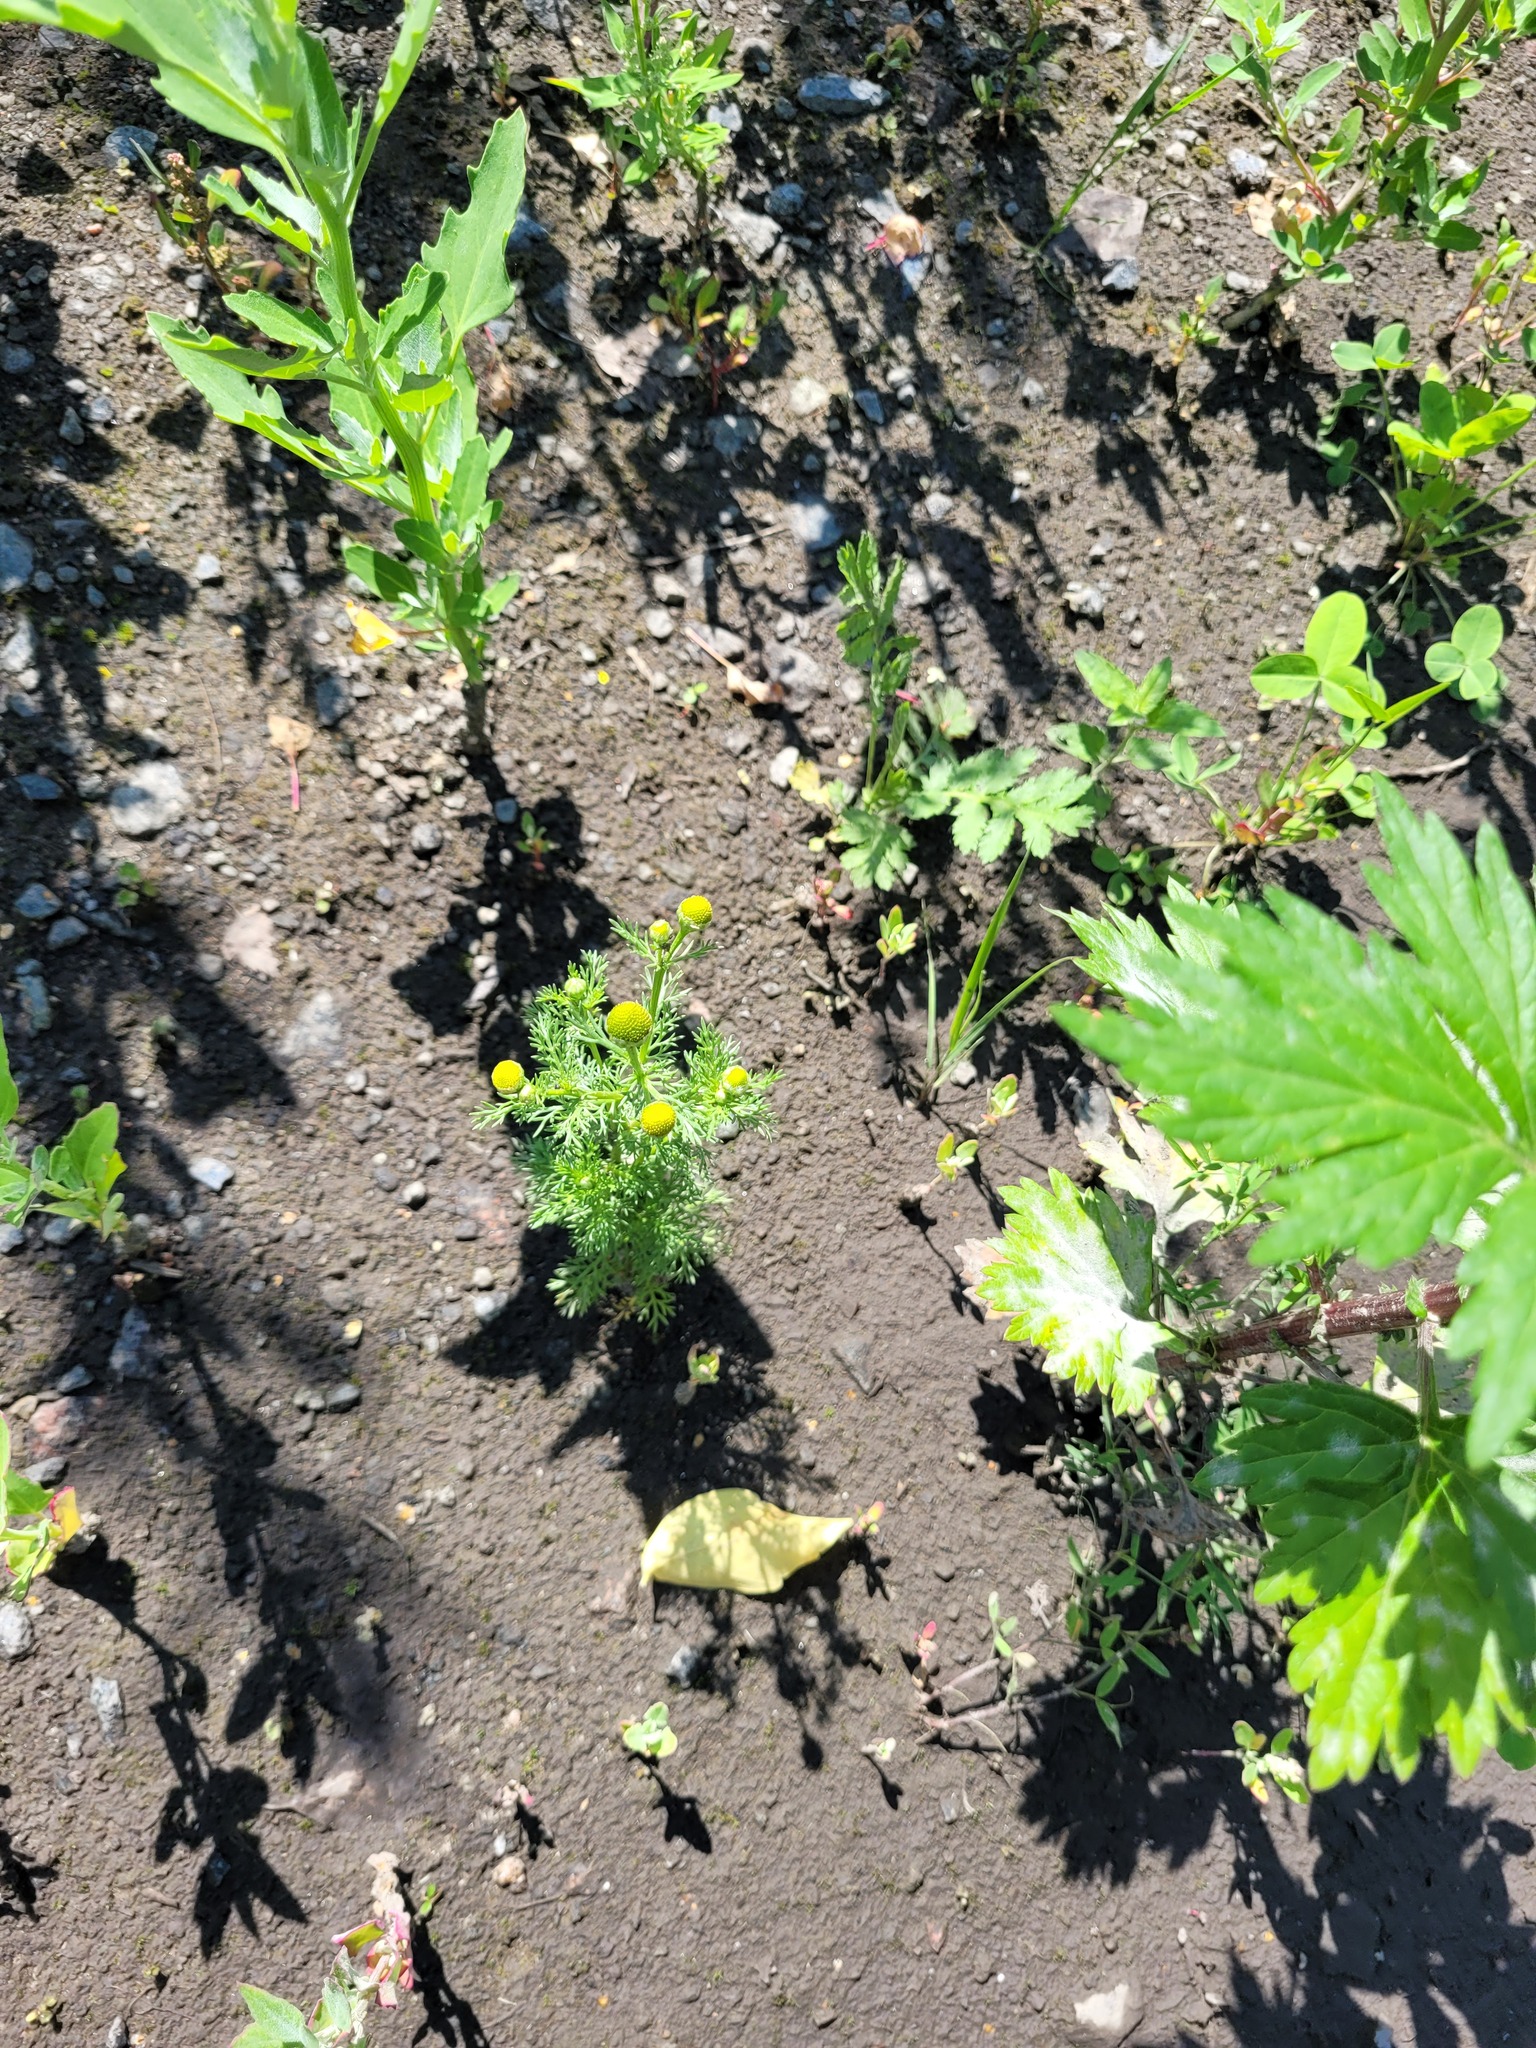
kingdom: Plantae
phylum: Tracheophyta
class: Magnoliopsida
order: Asterales
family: Asteraceae
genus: Matricaria
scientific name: Matricaria discoidea
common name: Disc mayweed
